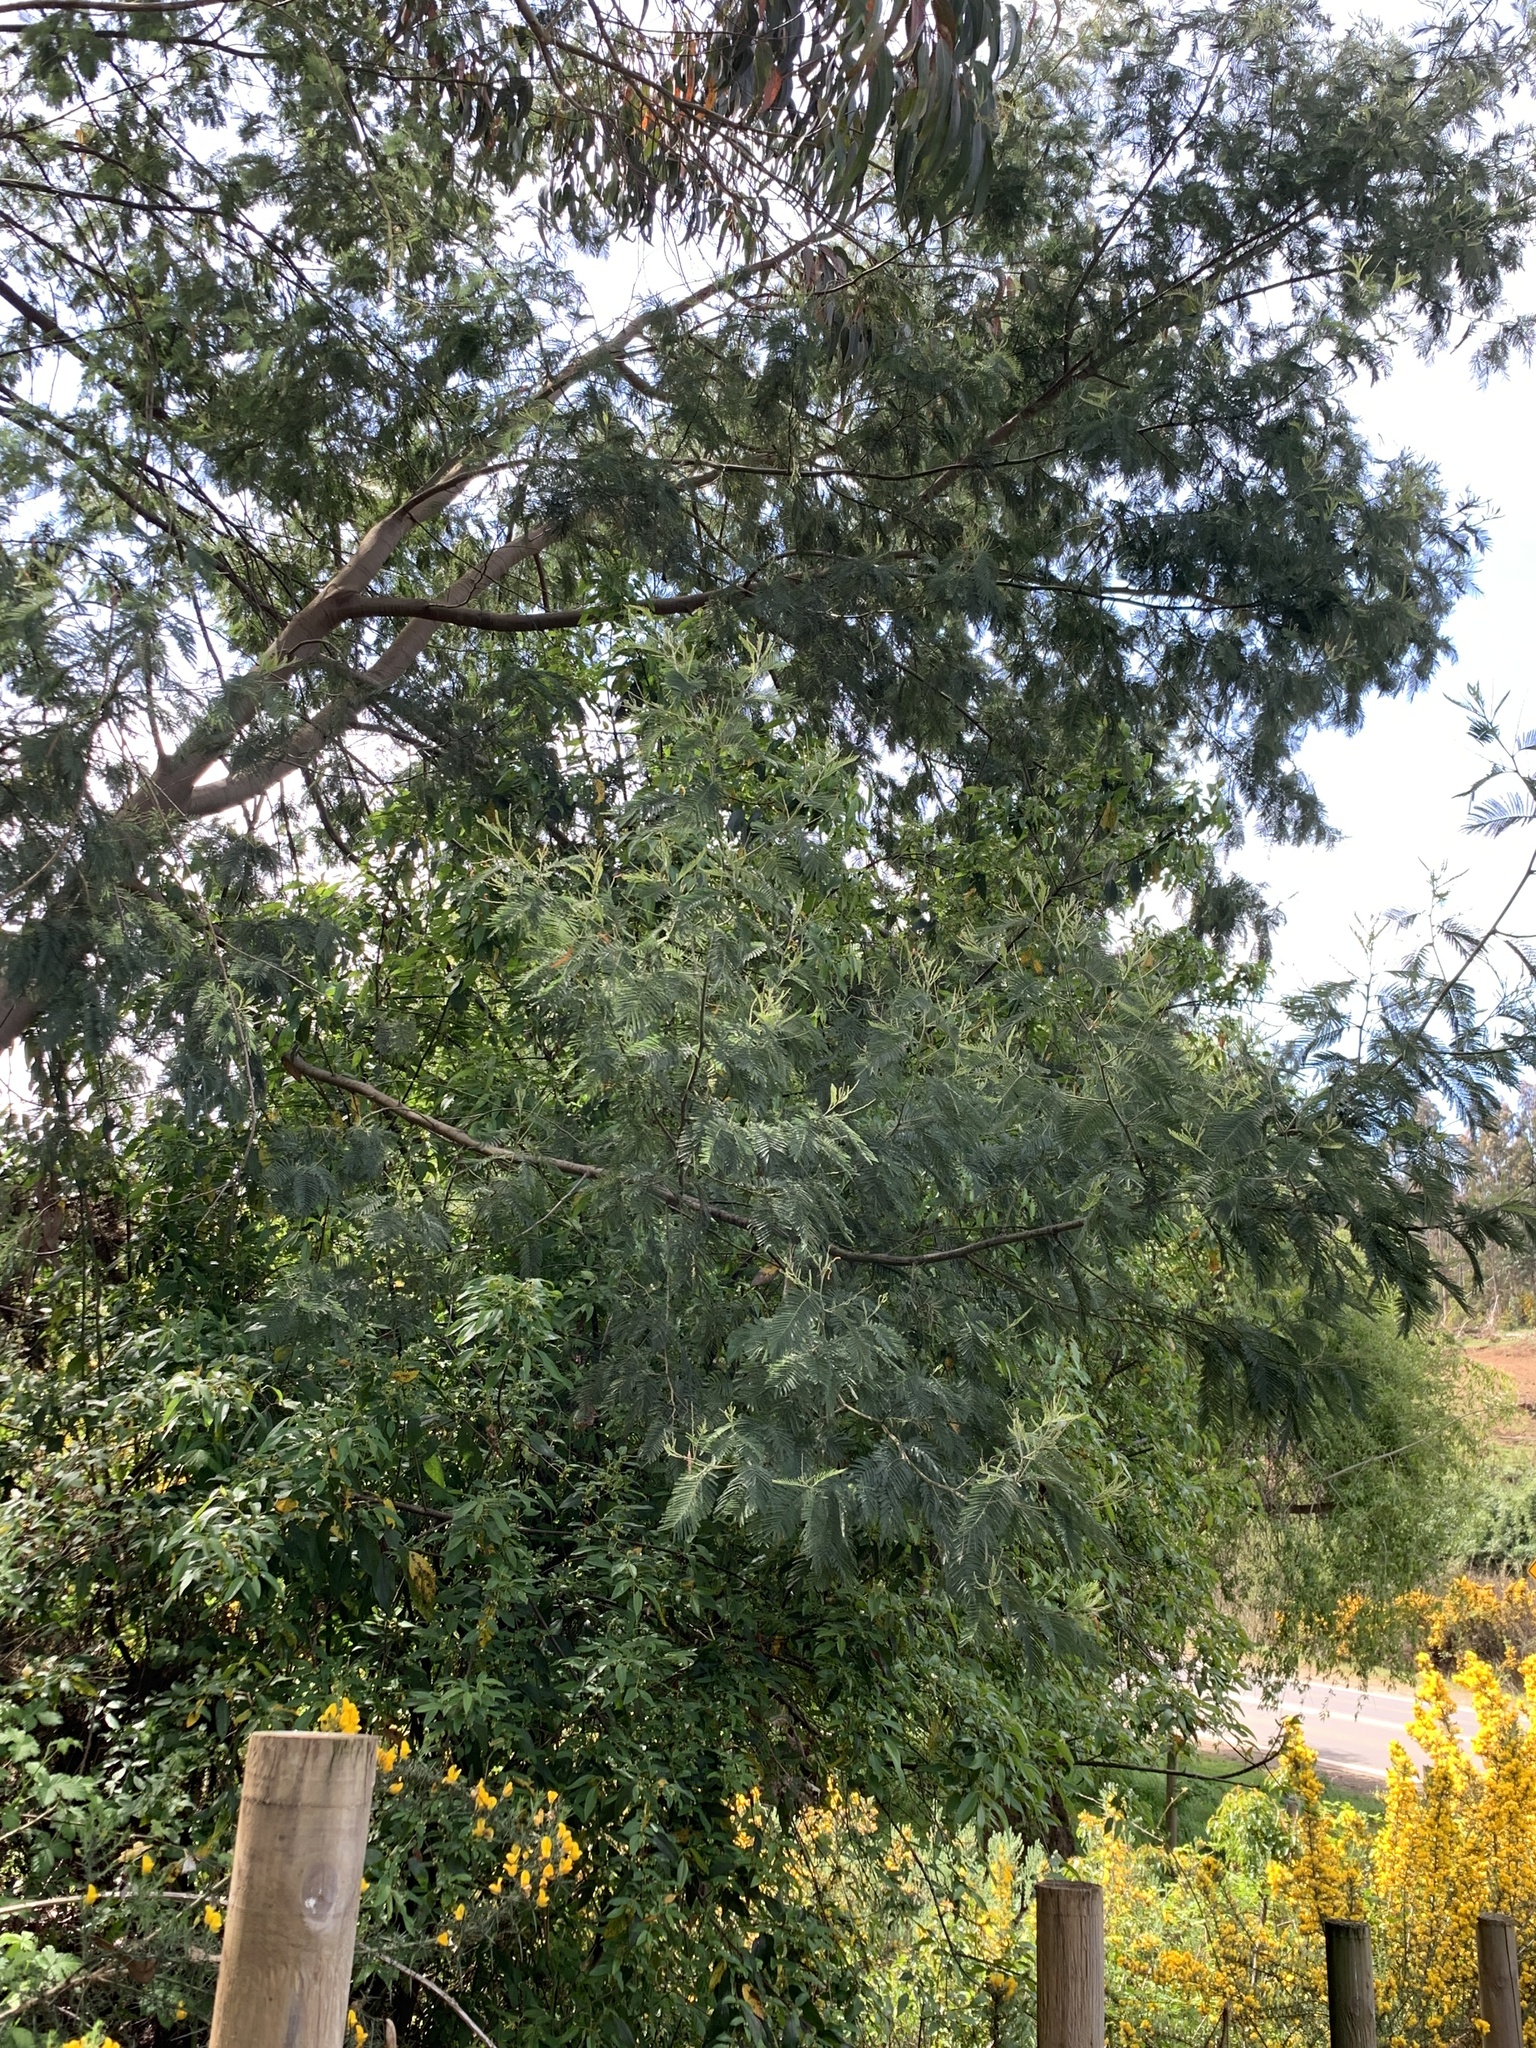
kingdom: Plantae
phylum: Tracheophyta
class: Magnoliopsida
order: Fabales
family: Fabaceae
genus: Acacia
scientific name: Acacia dealbata
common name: Silver wattle
